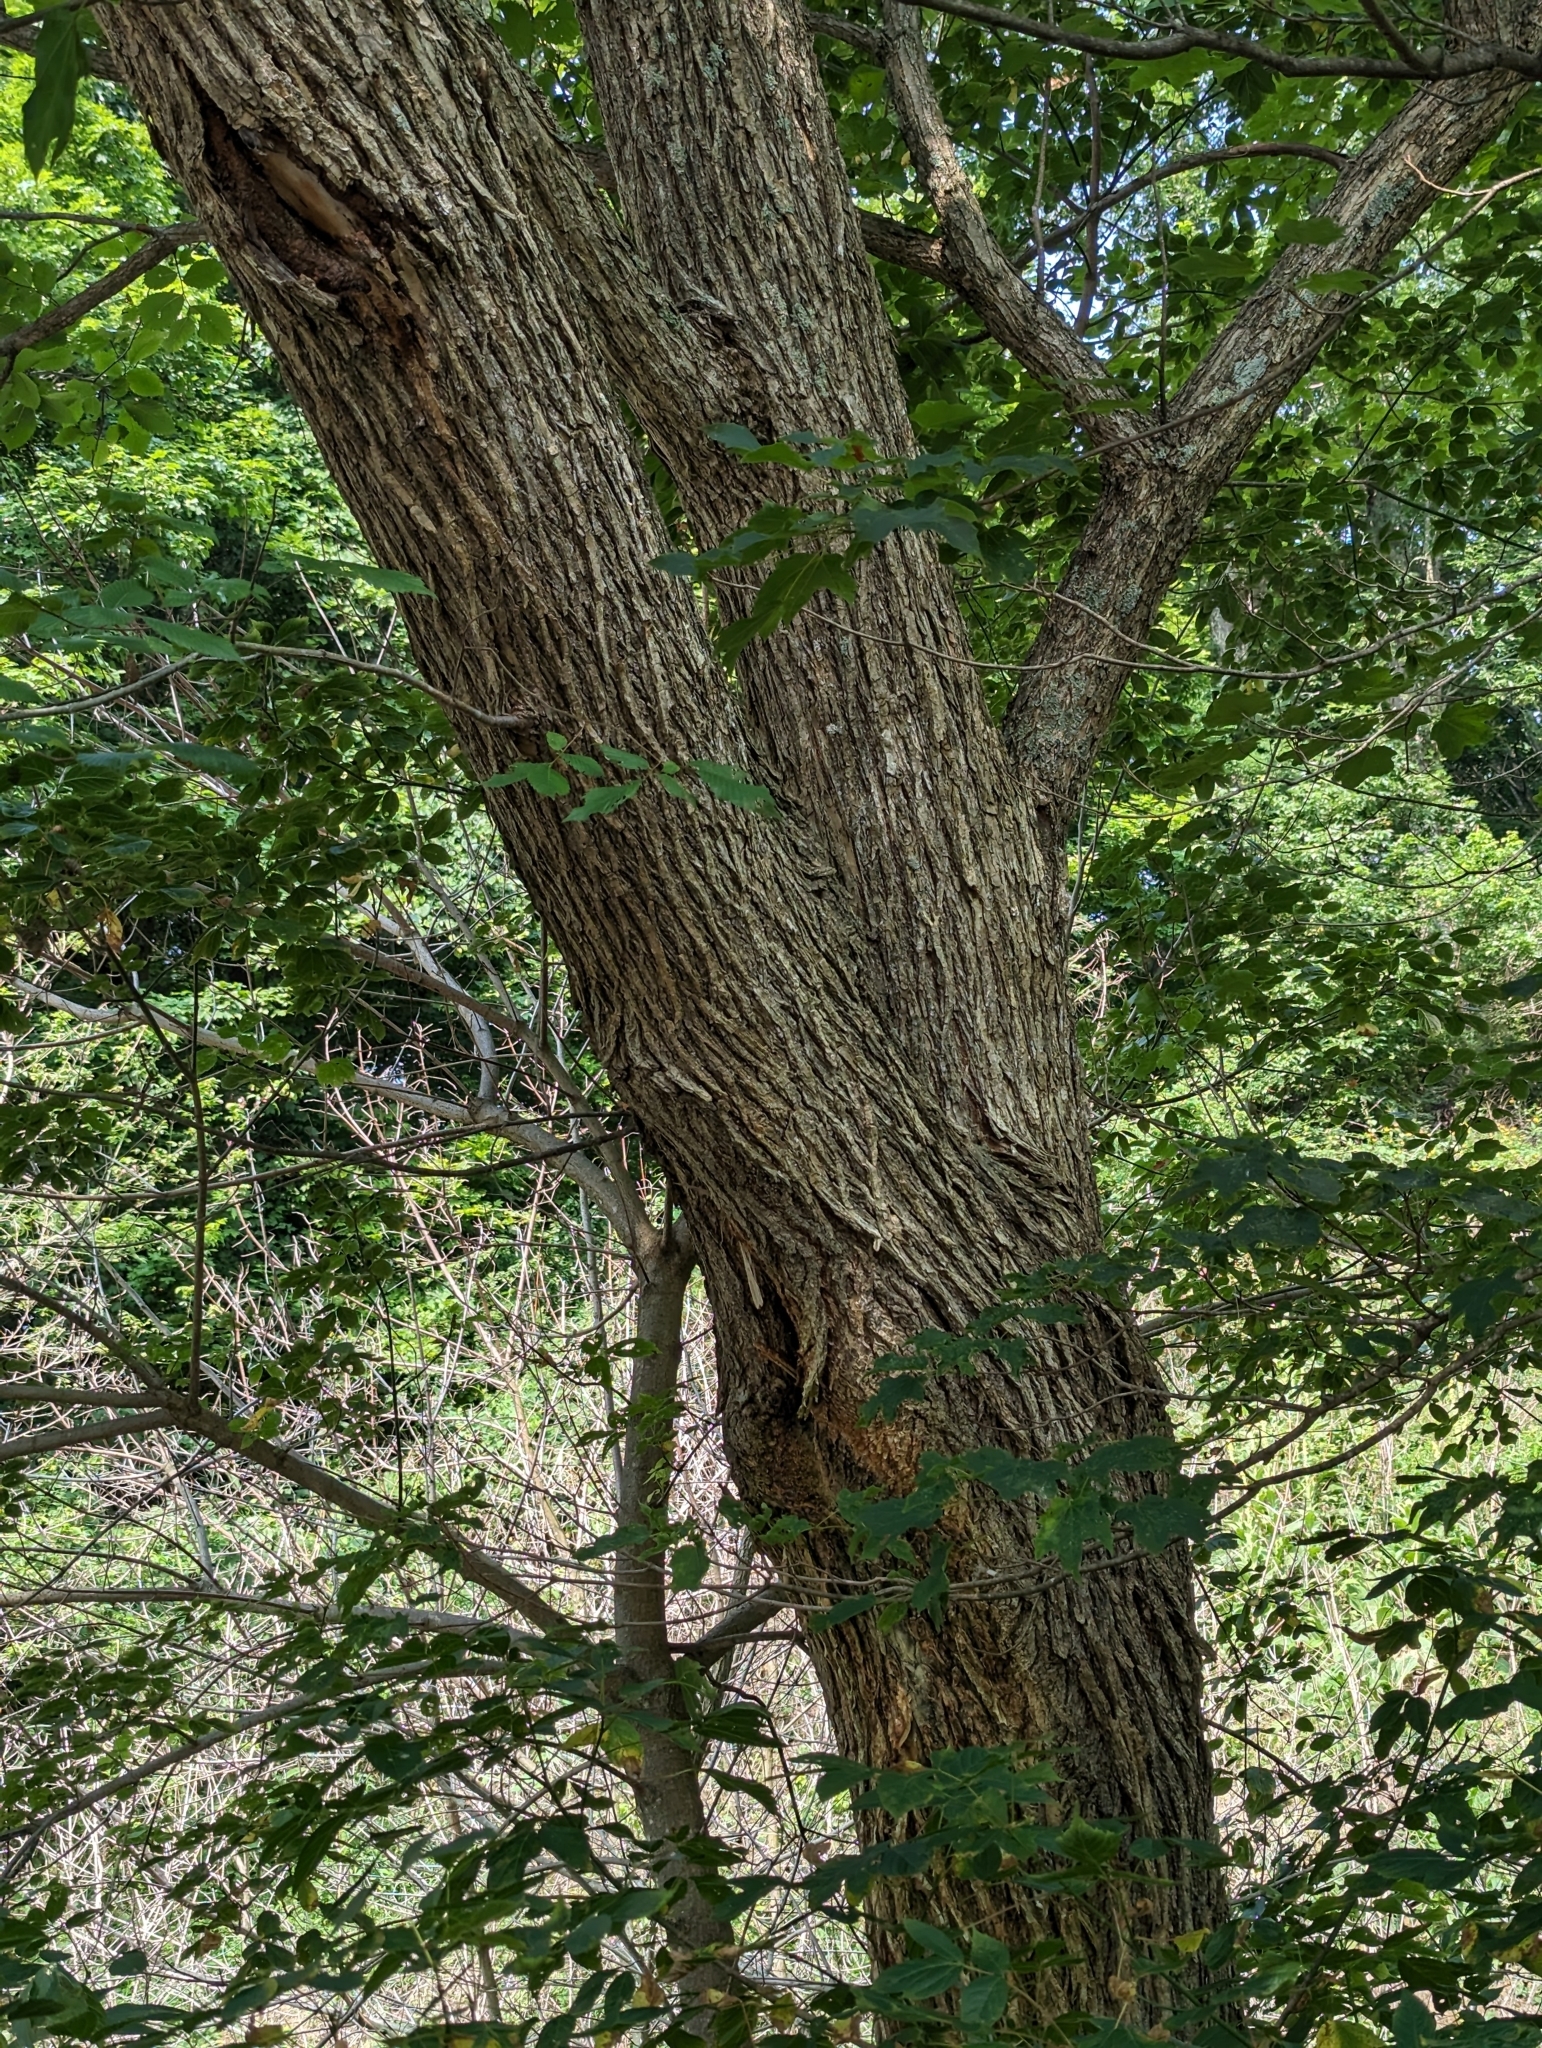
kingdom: Plantae
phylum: Tracheophyta
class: Magnoliopsida
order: Rosales
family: Ulmaceae
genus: Ulmus
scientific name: Ulmus rubra
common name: Slippery elm
